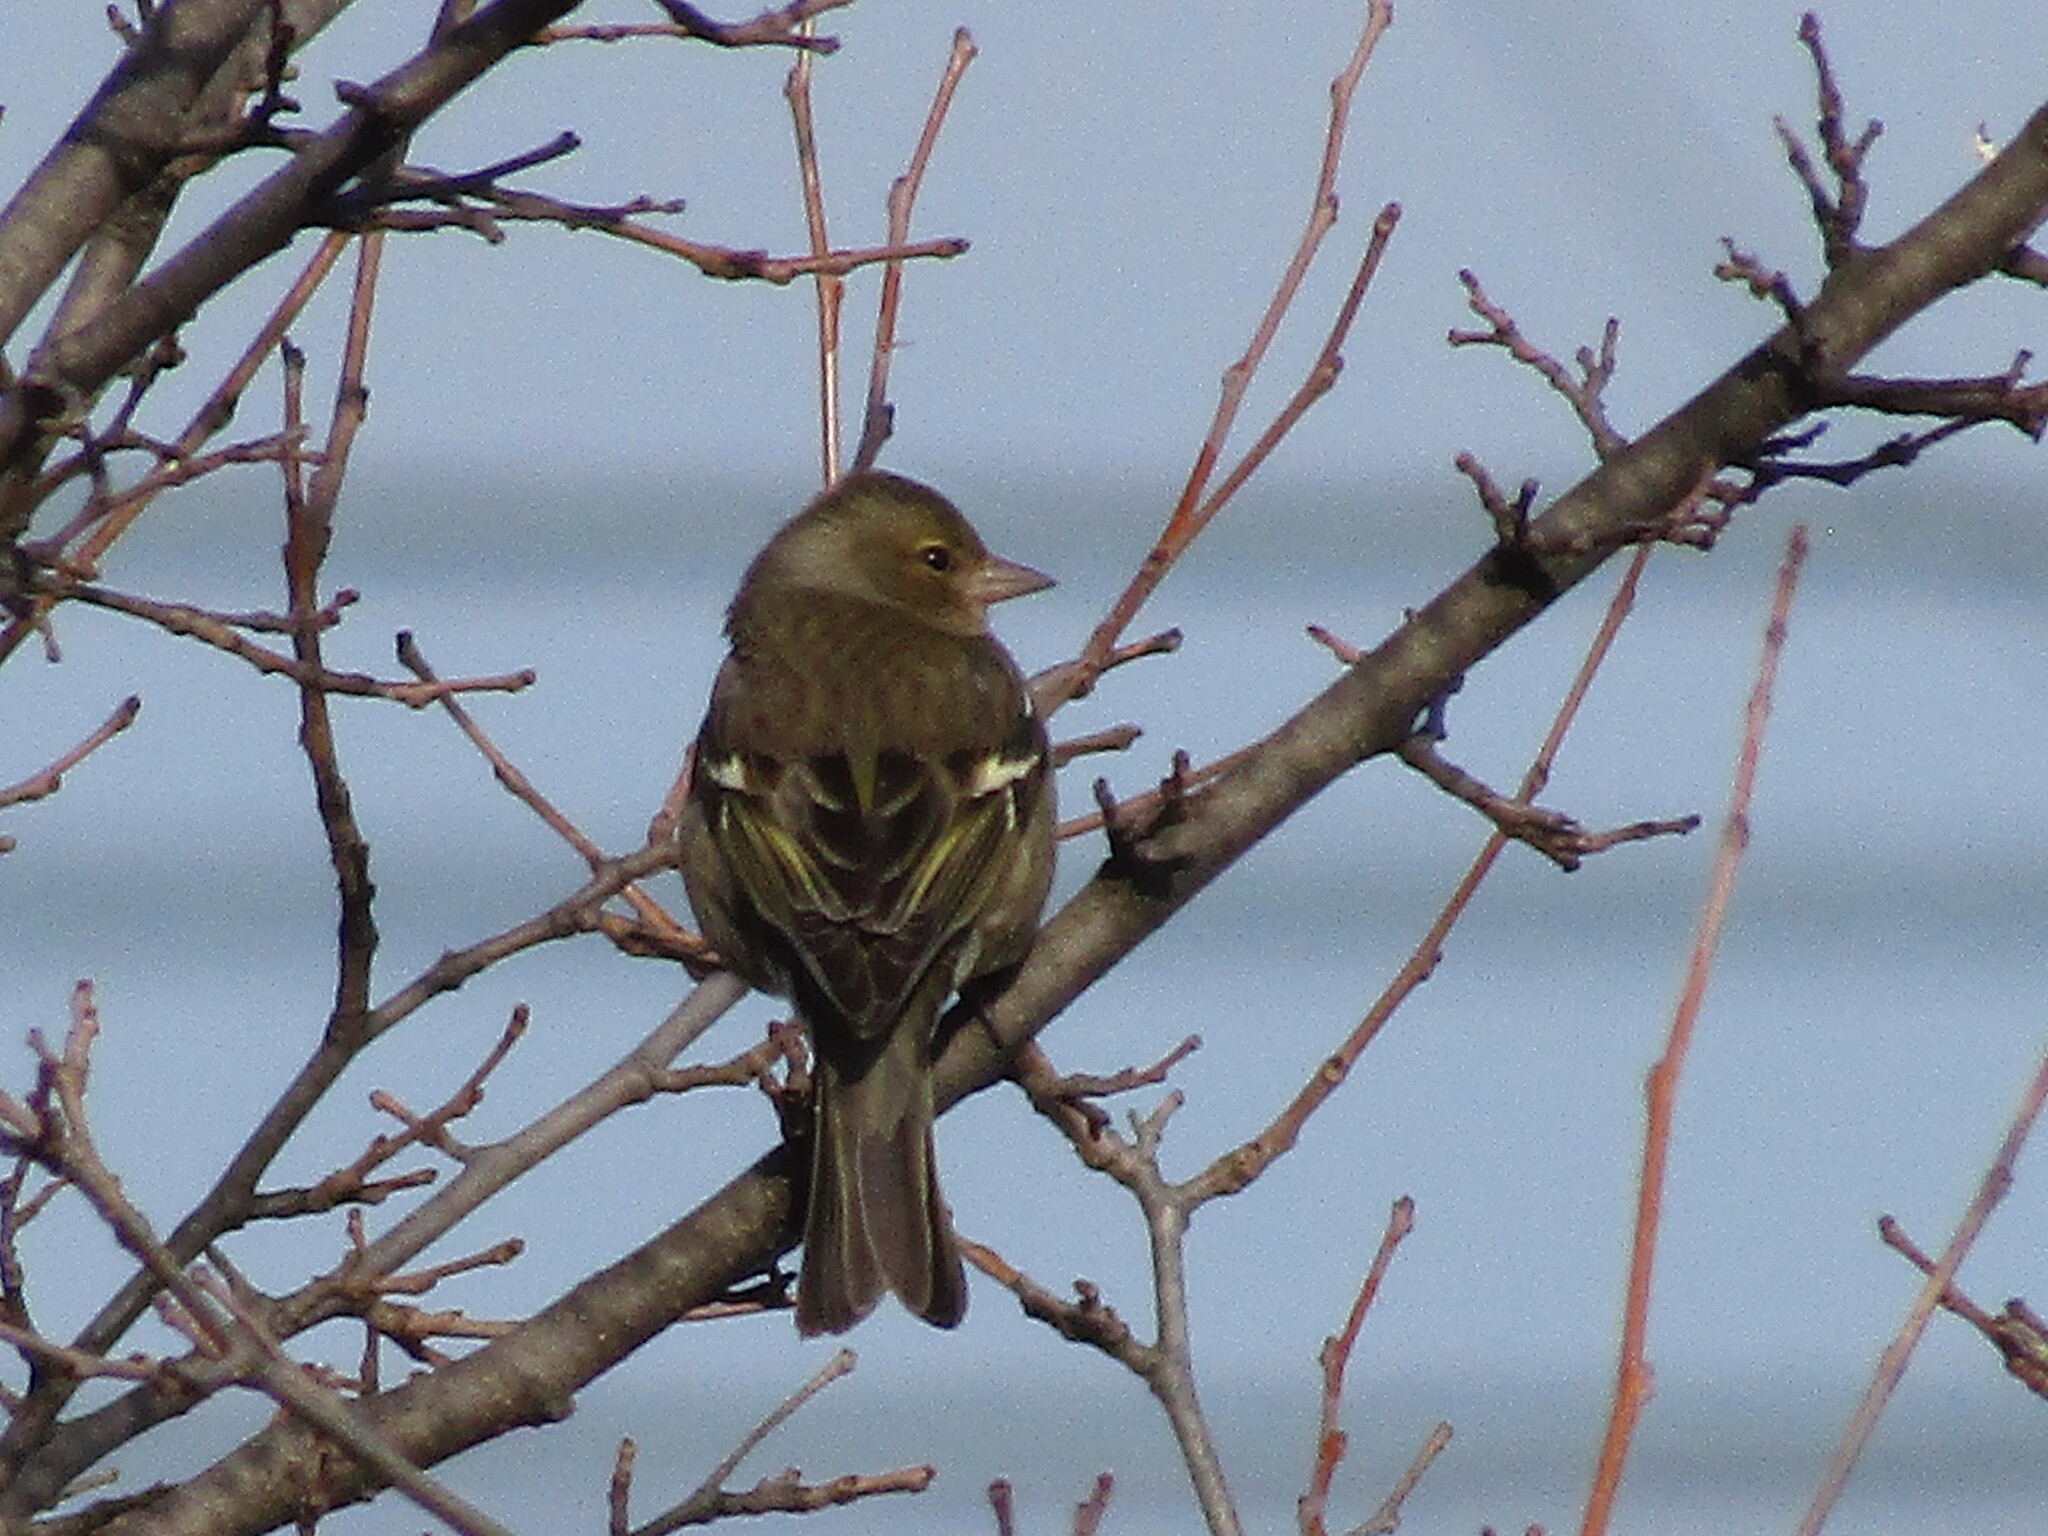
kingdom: Animalia
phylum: Chordata
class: Aves
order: Passeriformes
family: Fringillidae
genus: Fringilla
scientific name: Fringilla coelebs
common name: Common chaffinch
